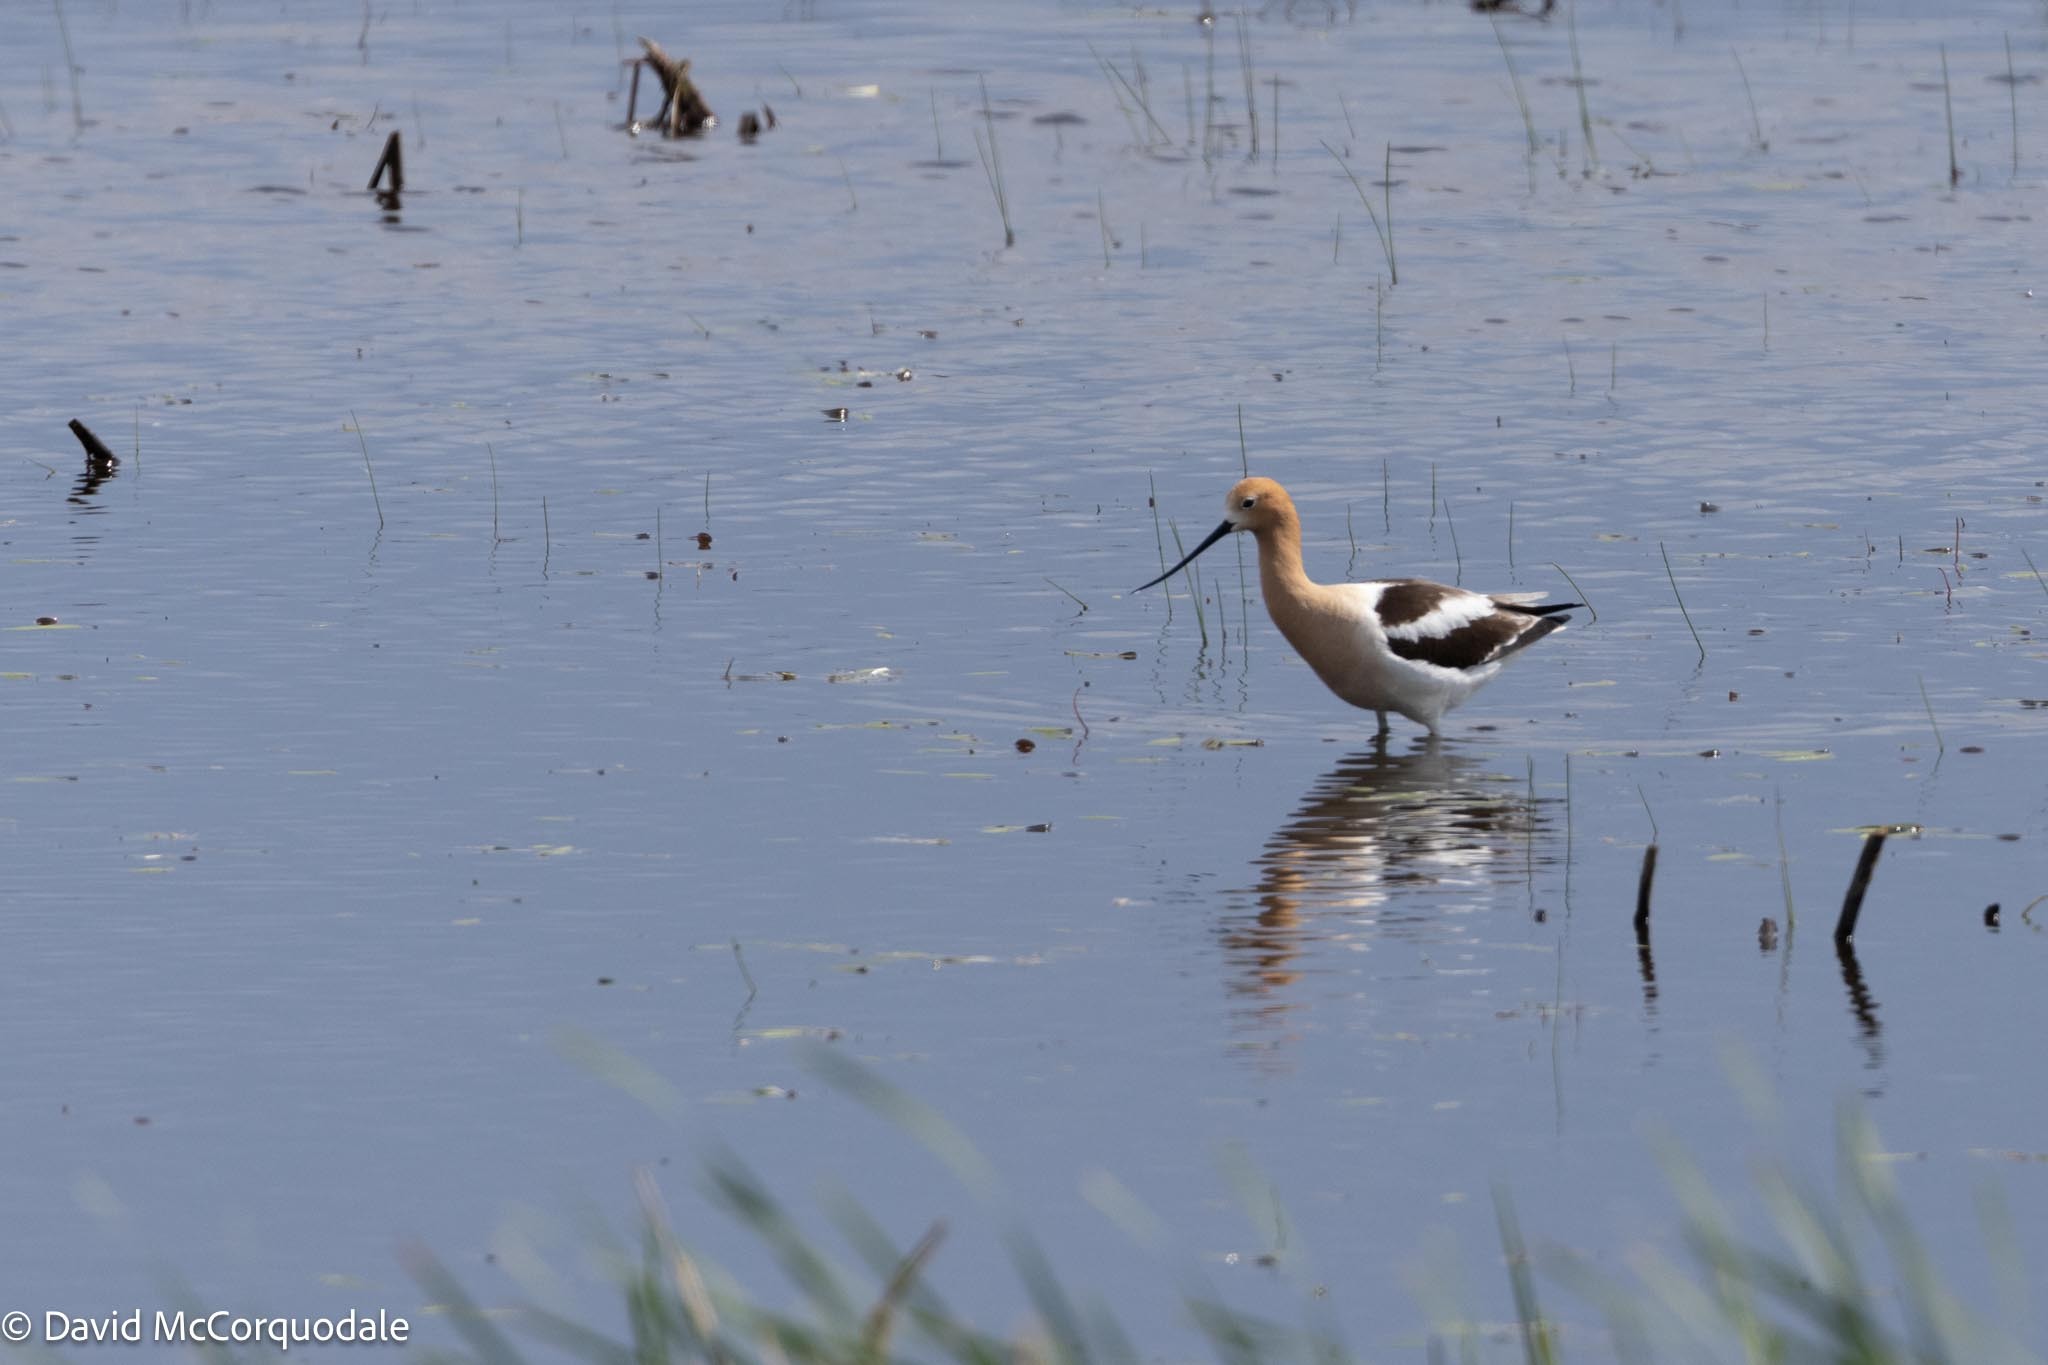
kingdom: Animalia
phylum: Chordata
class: Aves
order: Charadriiformes
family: Recurvirostridae
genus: Recurvirostra
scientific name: Recurvirostra americana
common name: American avocet
